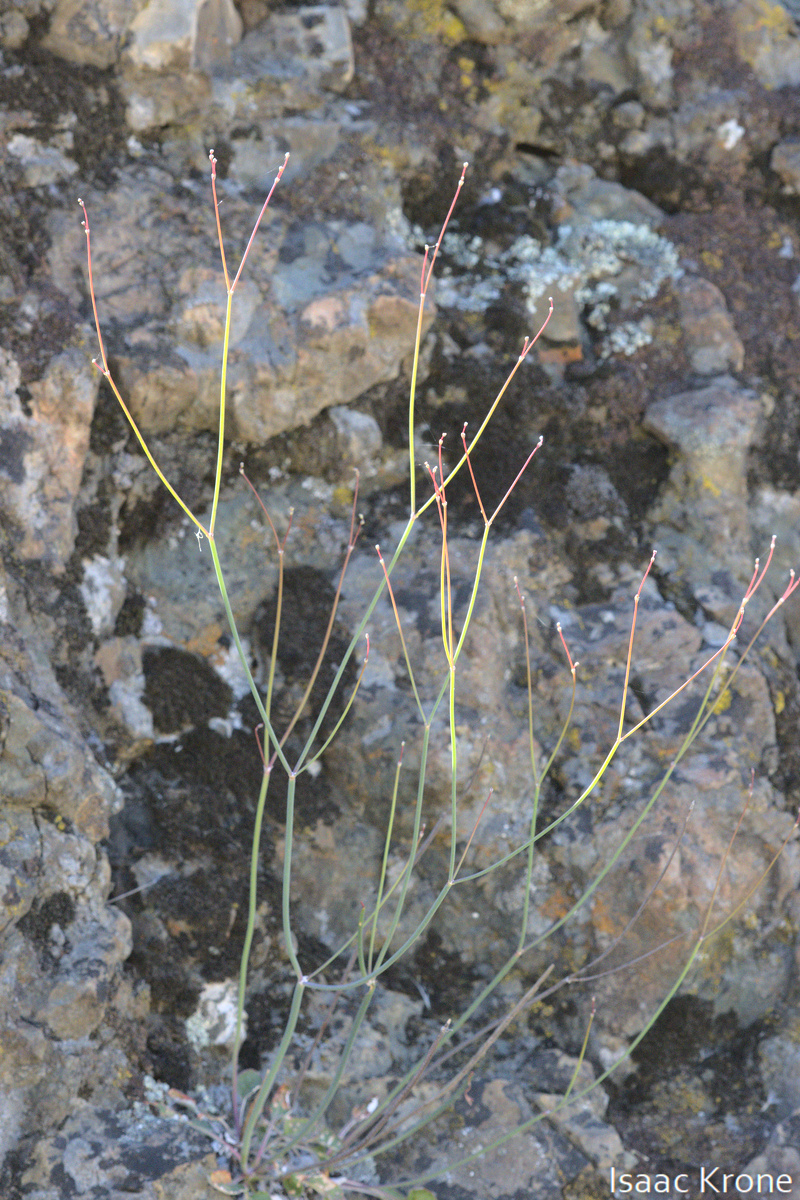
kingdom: Plantae
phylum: Tracheophyta
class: Magnoliopsida
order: Caryophyllales
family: Polygonaceae
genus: Eriogonum
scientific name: Eriogonum nudum
